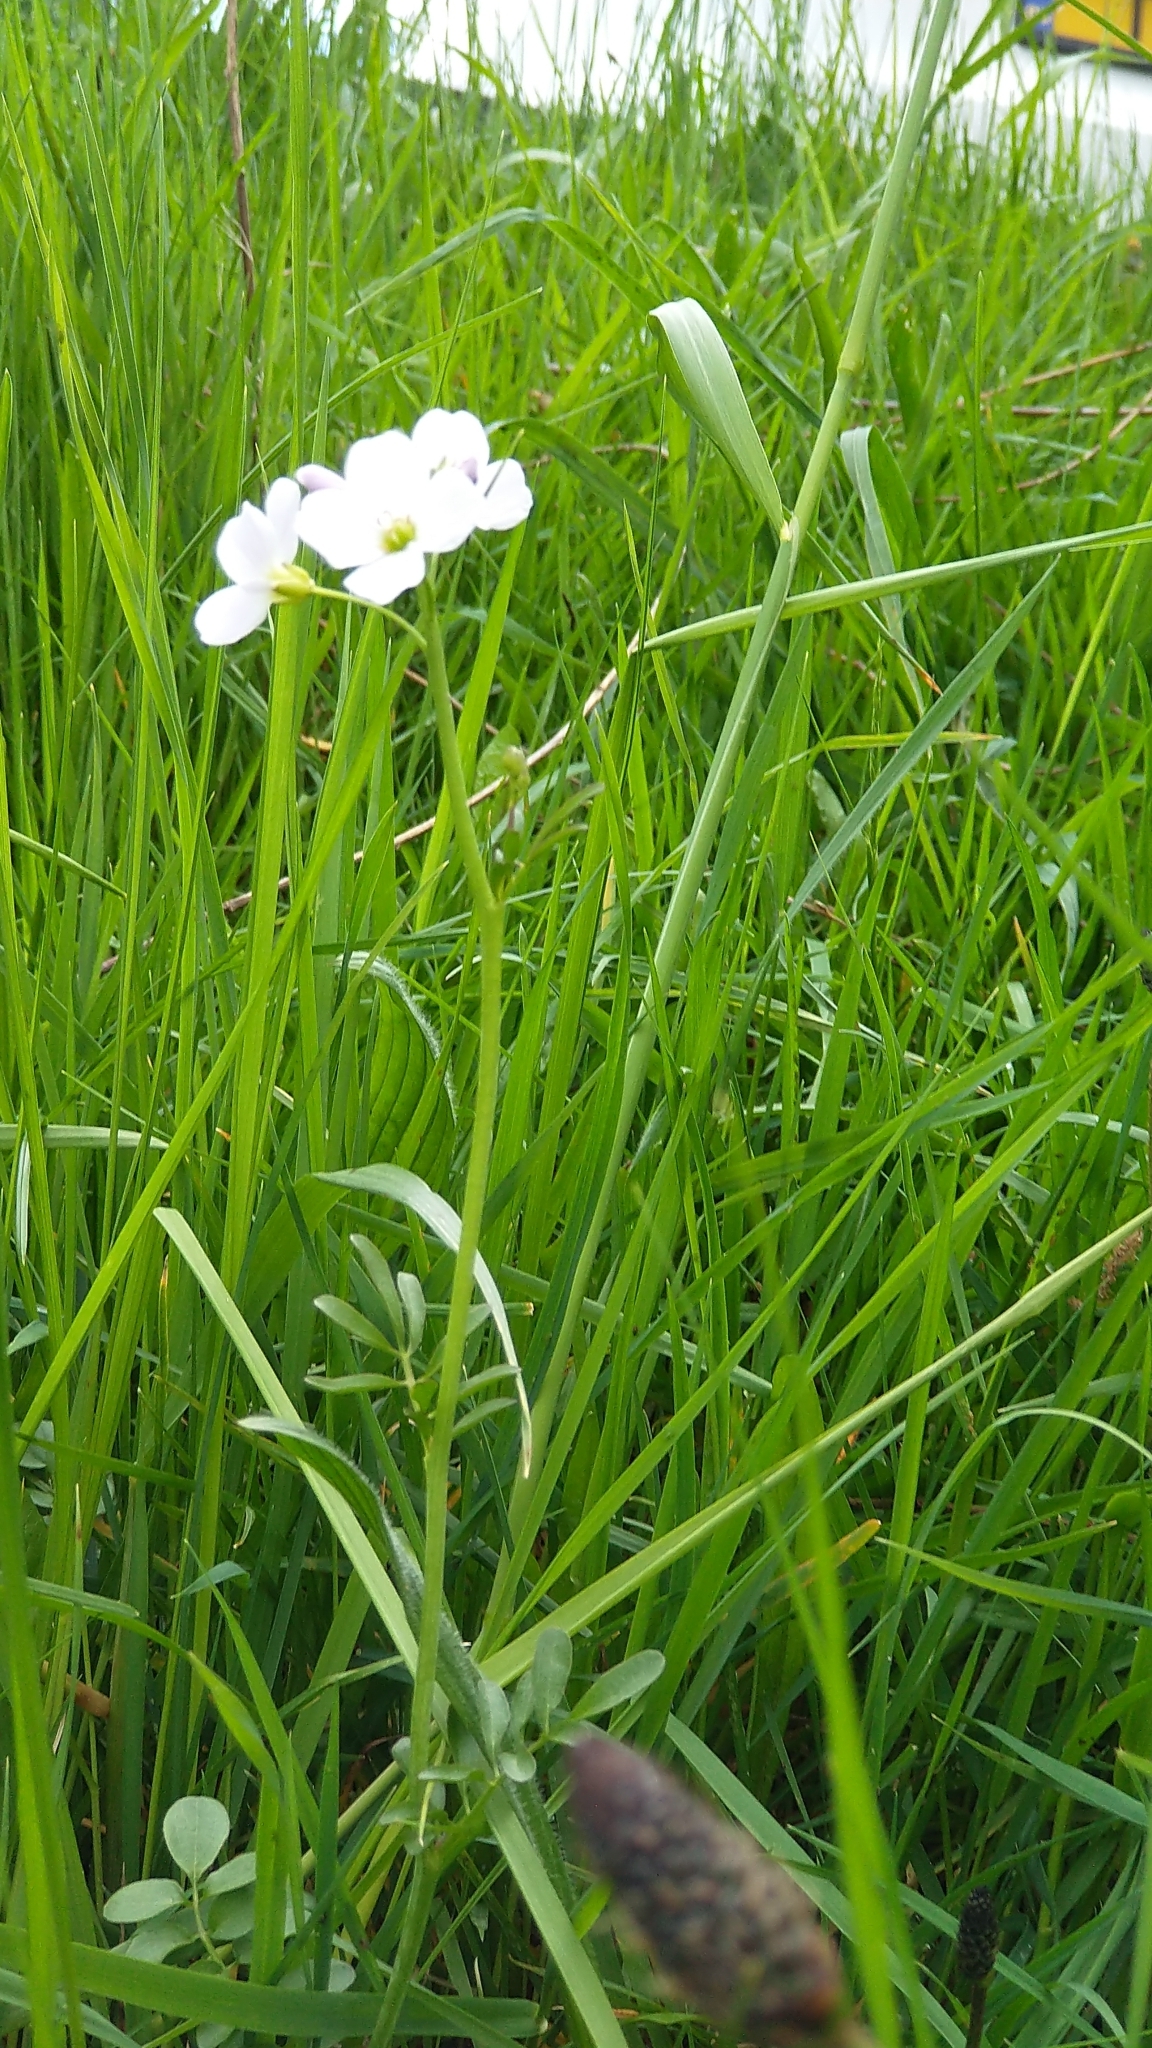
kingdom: Plantae
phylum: Tracheophyta
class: Magnoliopsida
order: Brassicales
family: Brassicaceae
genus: Cardamine
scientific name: Cardamine pratensis
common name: Cuckoo flower
